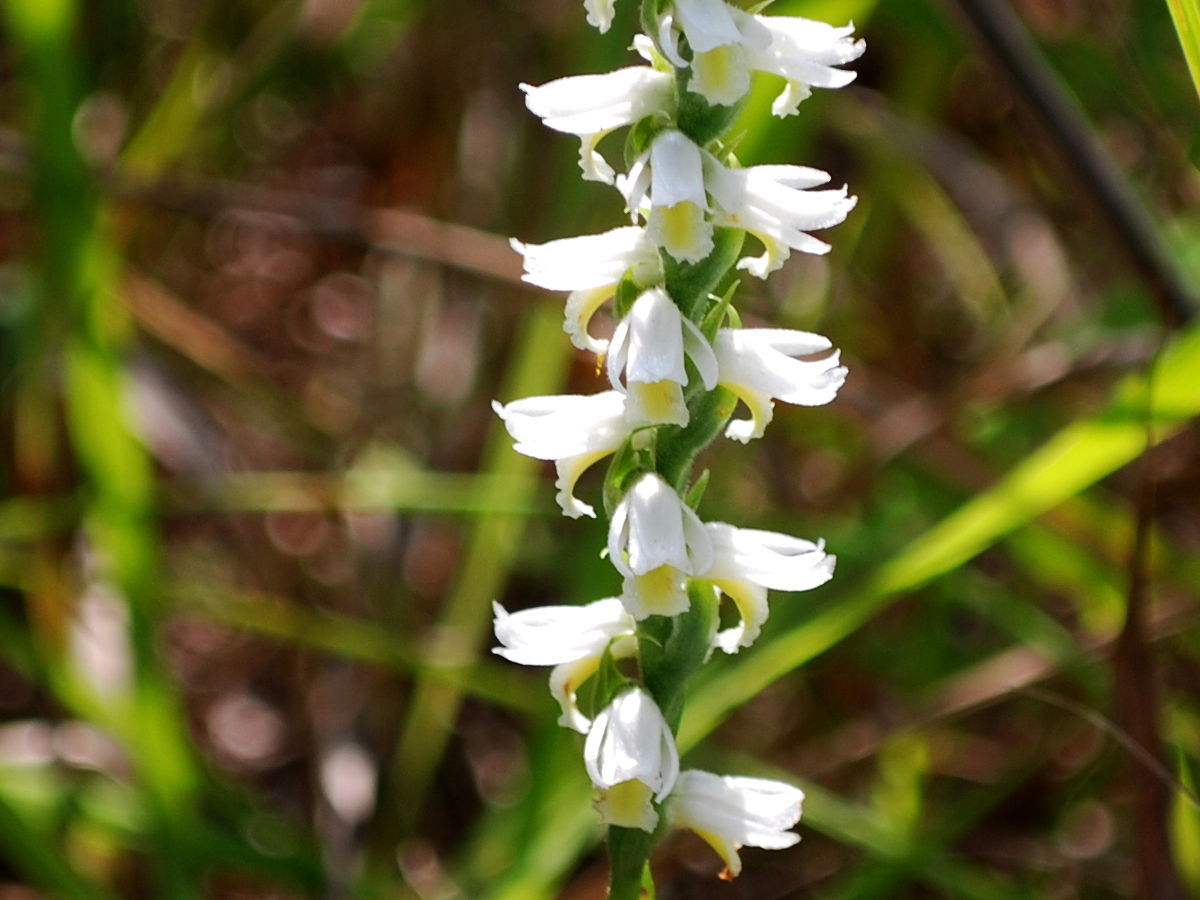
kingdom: Plantae
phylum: Tracheophyta
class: Liliopsida
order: Asparagales
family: Orchidaceae
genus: Spiranthes
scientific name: Spiranthes magnicamporum
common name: Great plains ladies'-tresses
